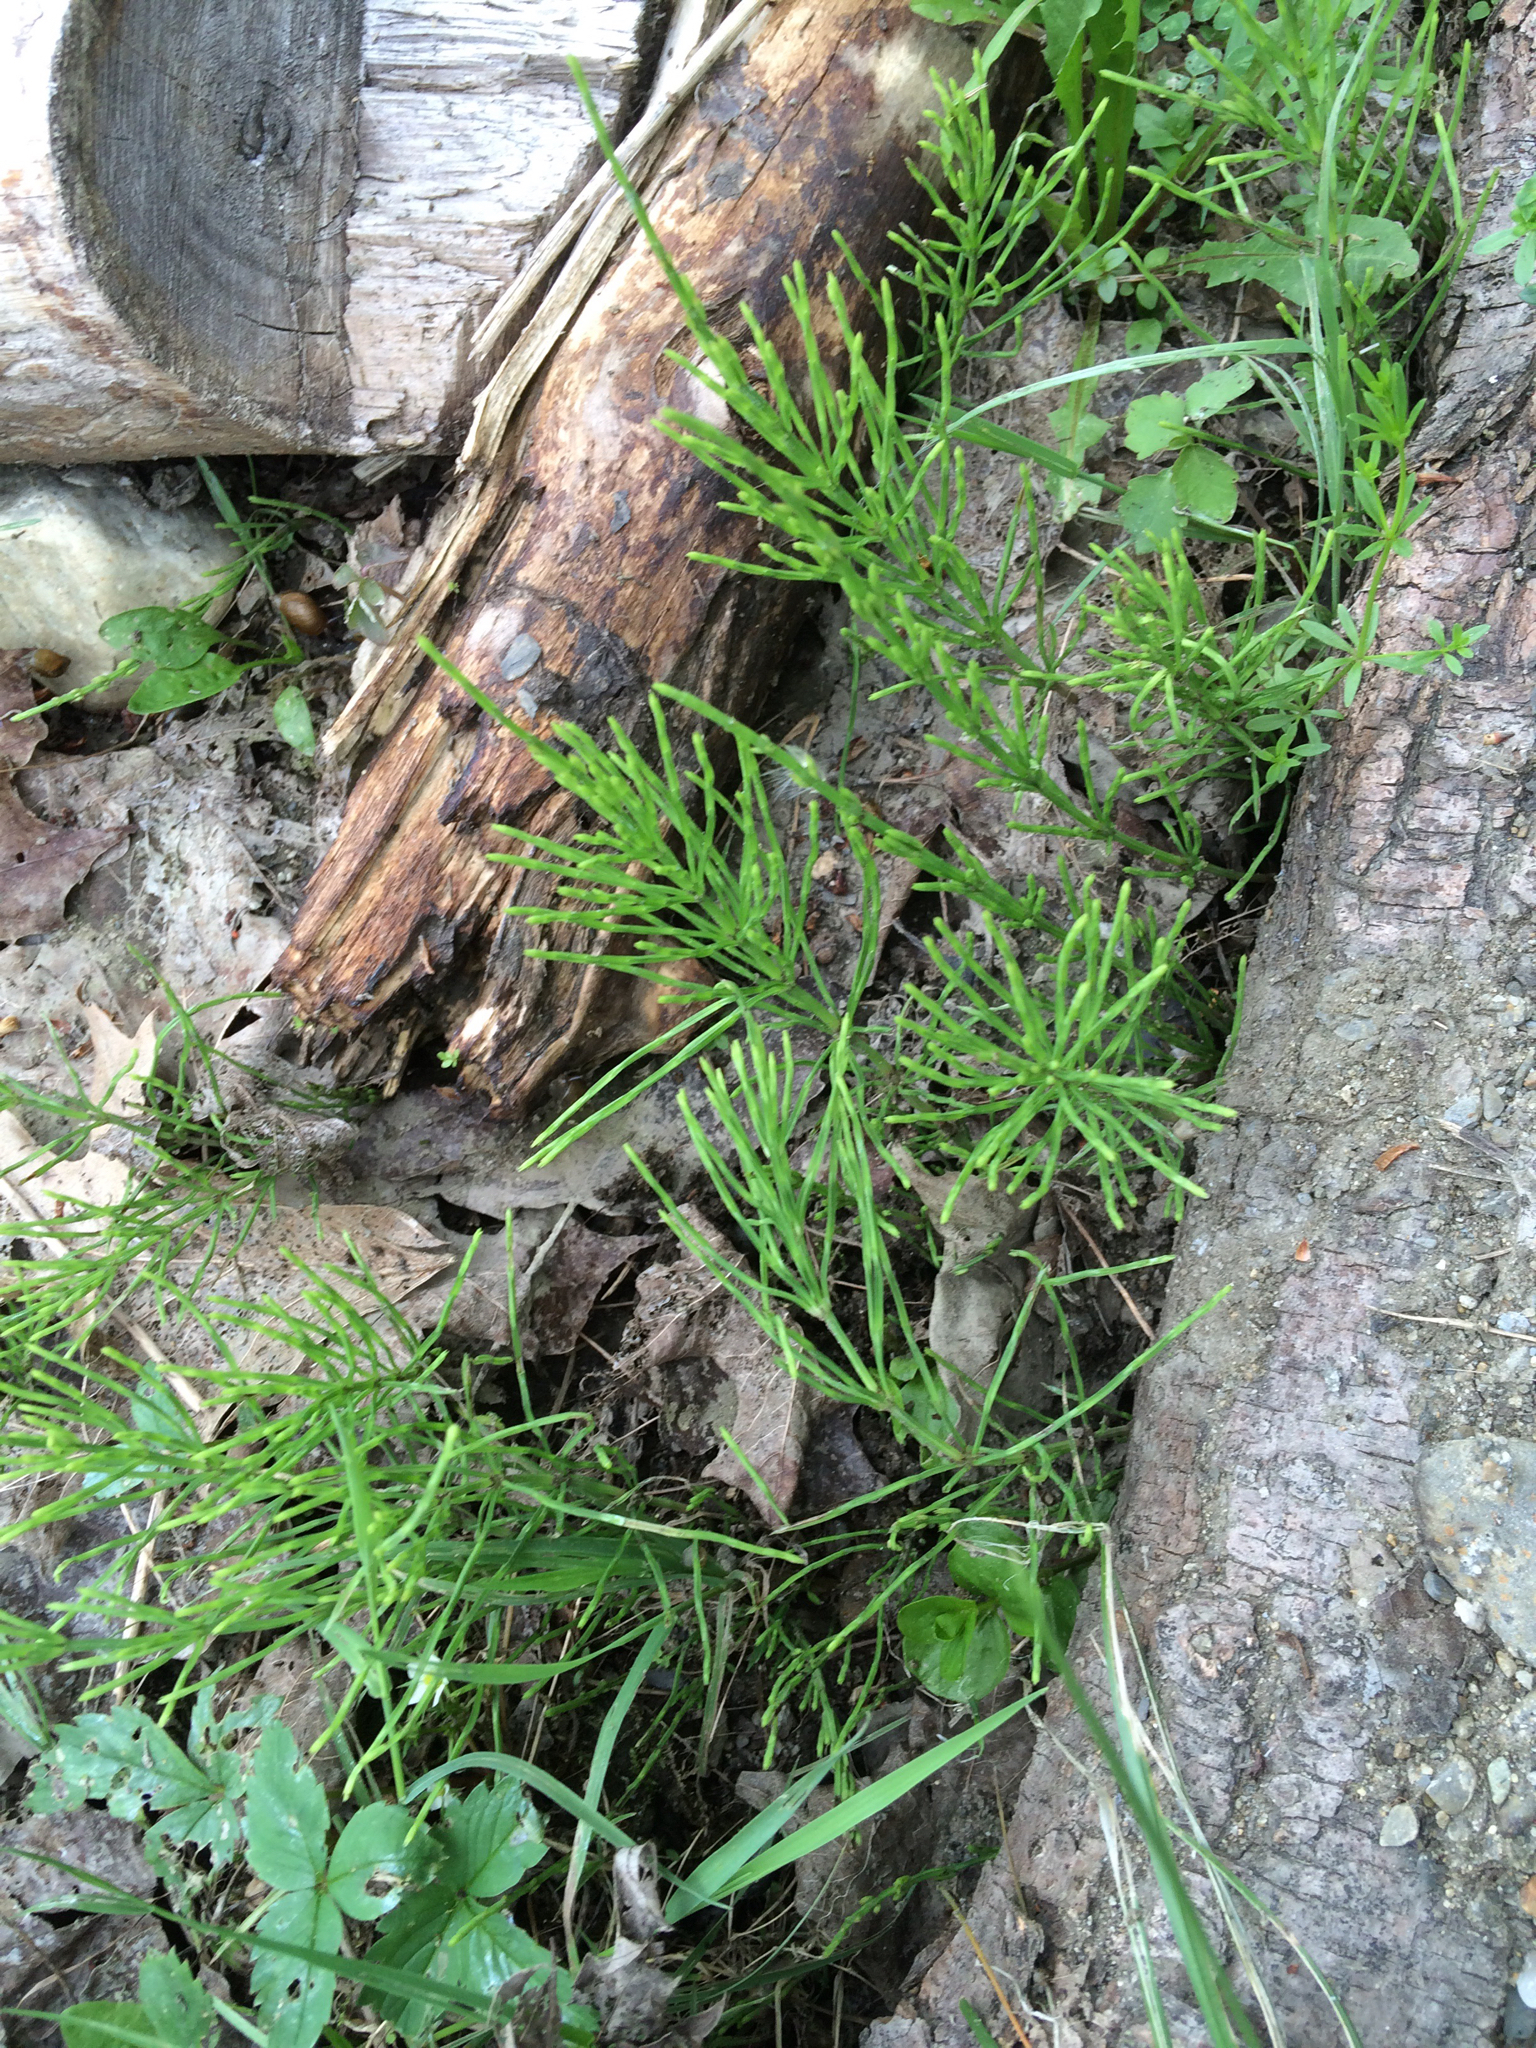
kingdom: Plantae
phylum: Tracheophyta
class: Polypodiopsida
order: Equisetales
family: Equisetaceae
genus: Equisetum
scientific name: Equisetum arvense
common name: Field horsetail
